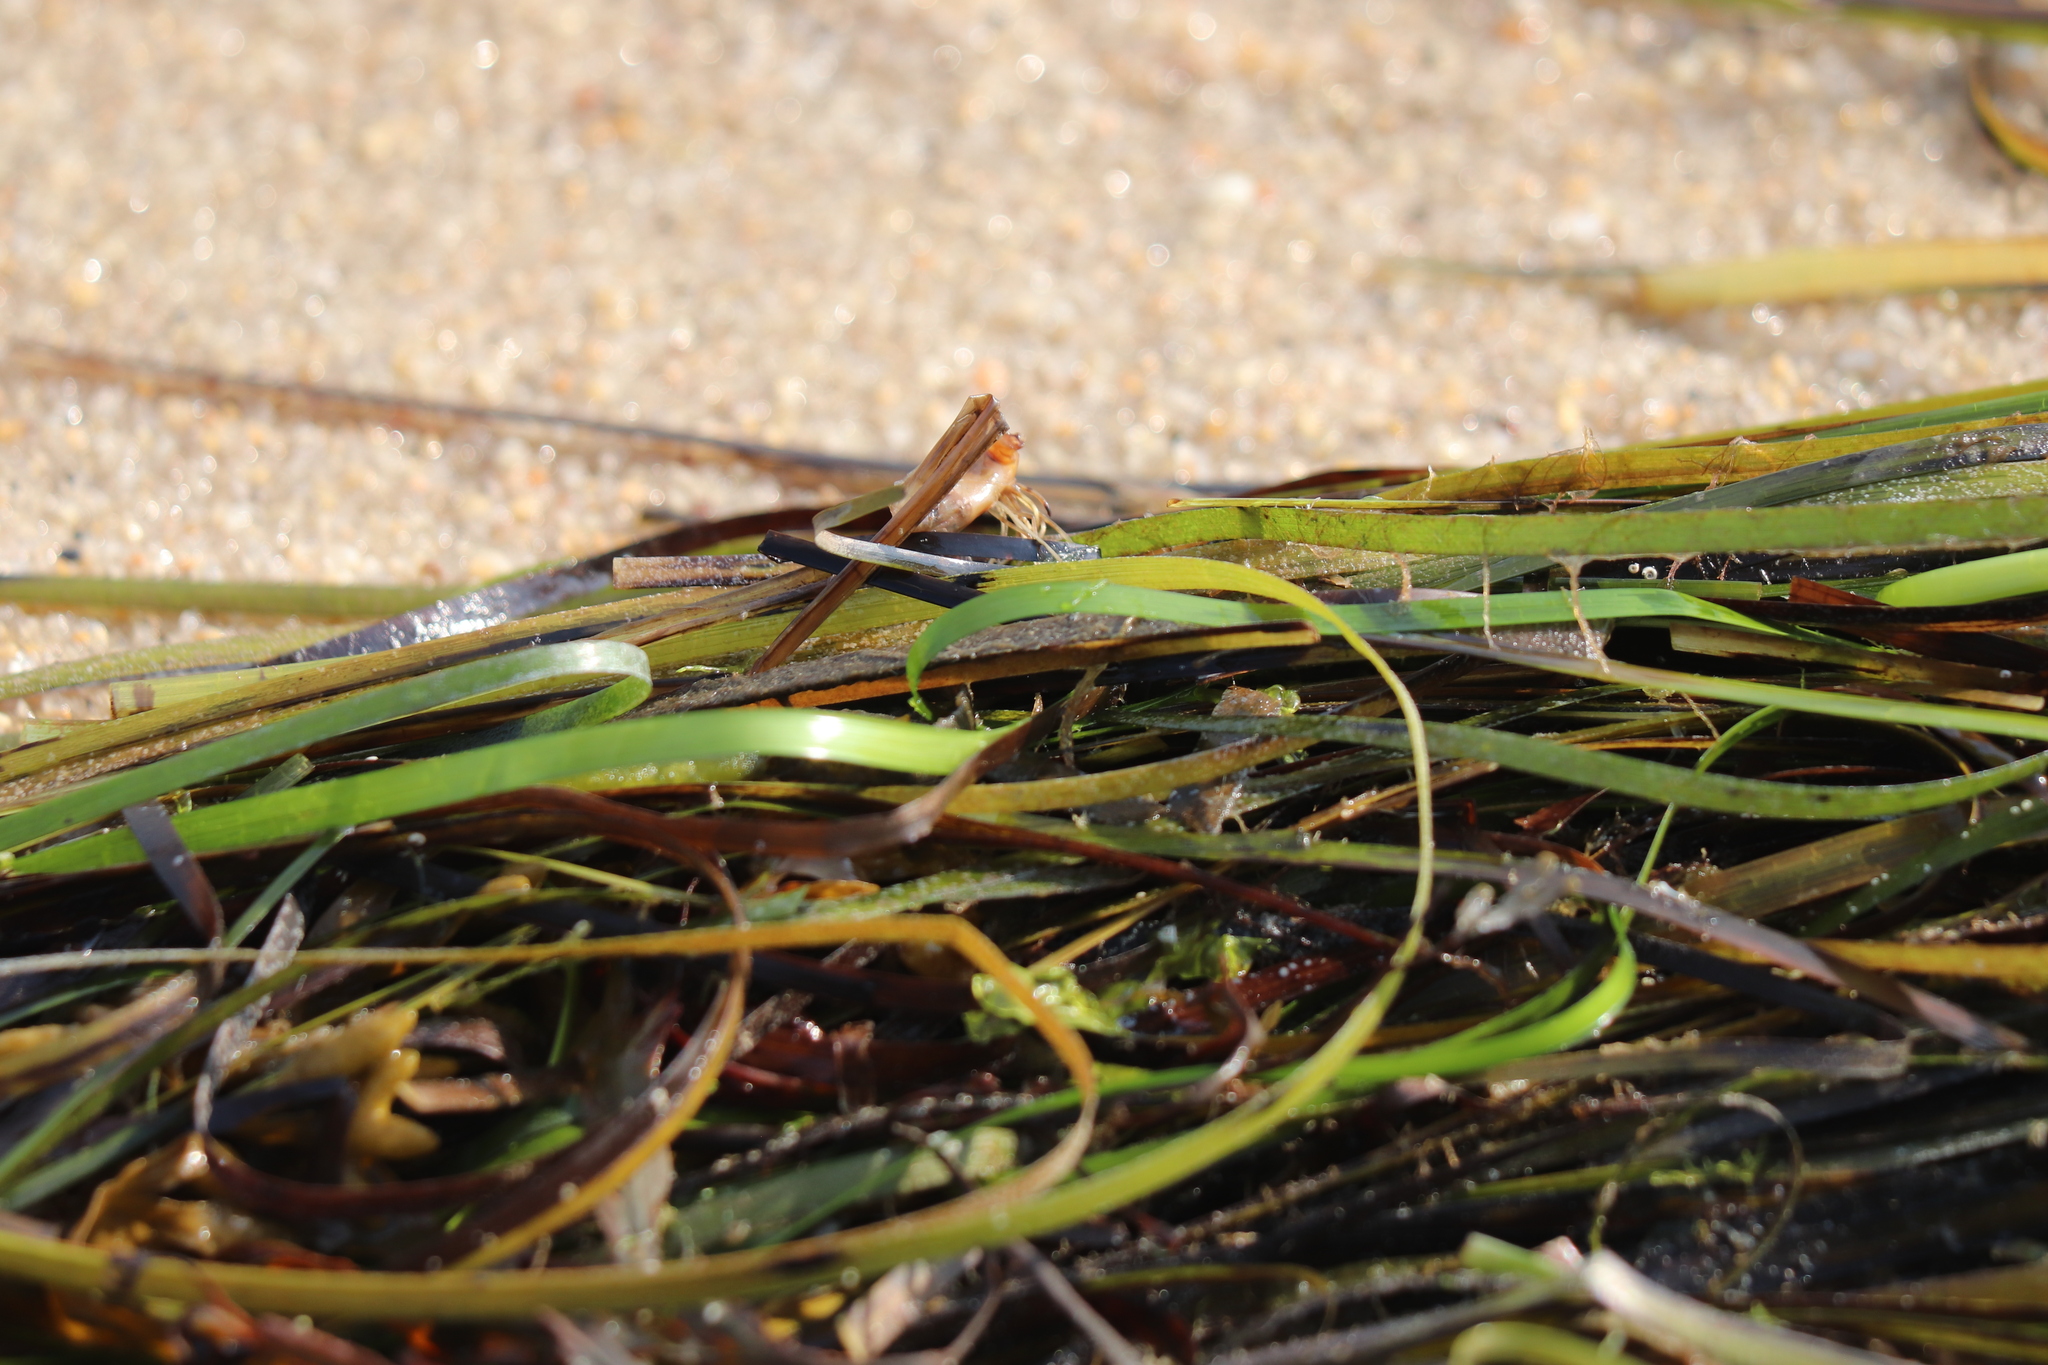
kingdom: Plantae
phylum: Tracheophyta
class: Liliopsida
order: Alismatales
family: Zosteraceae
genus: Zostera
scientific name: Zostera marina
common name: Eelgrass
